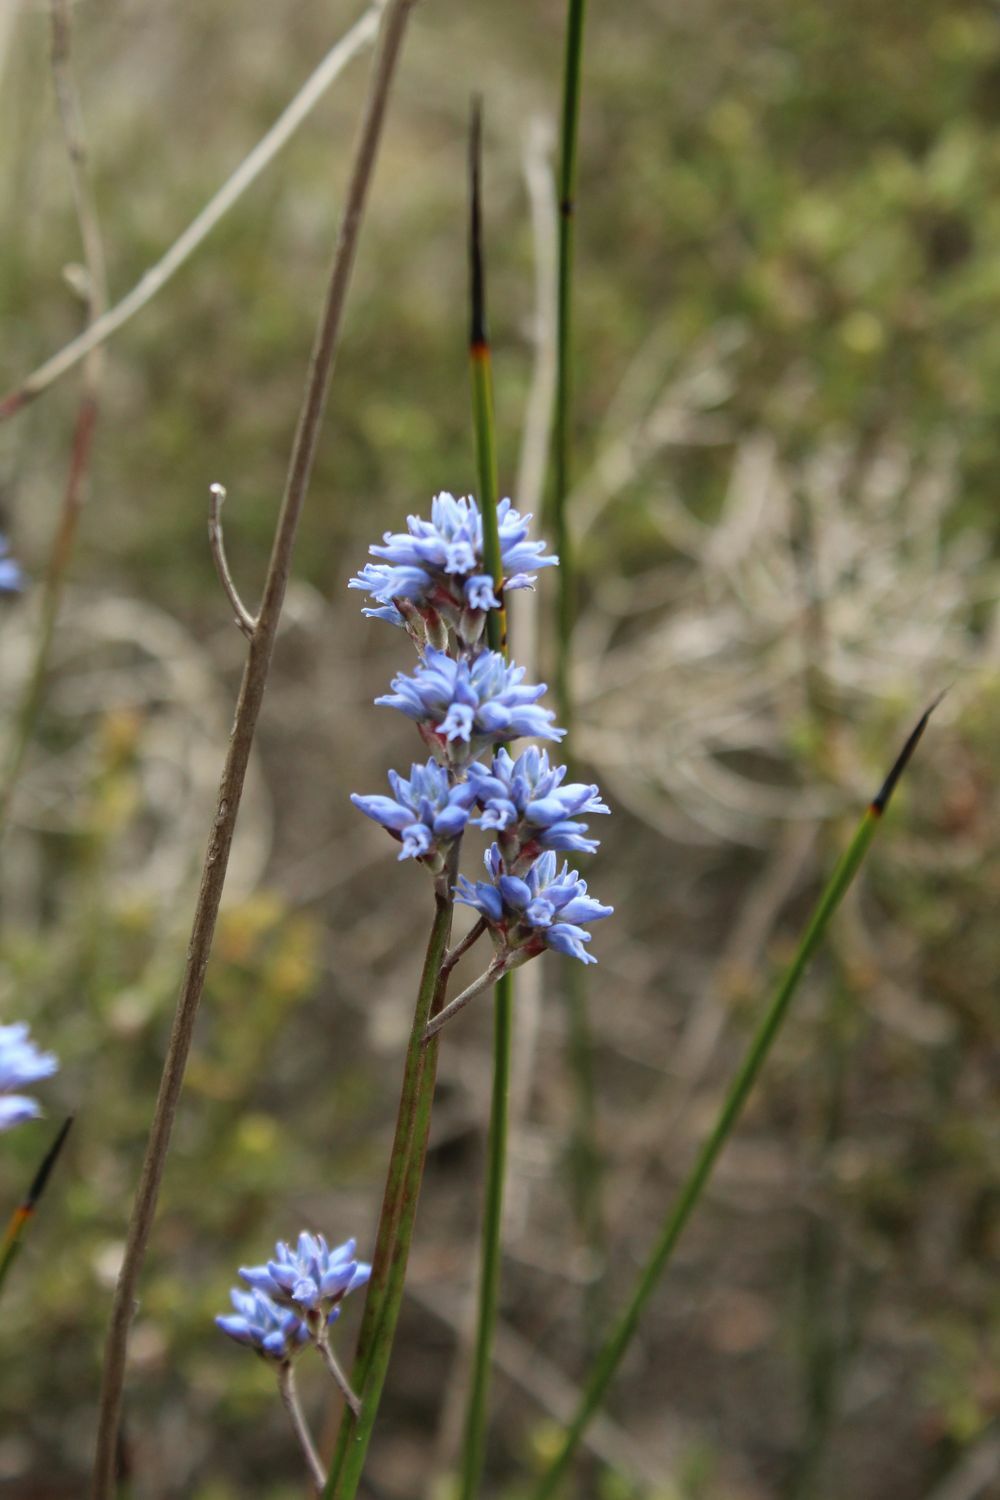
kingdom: Plantae
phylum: Tracheophyta
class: Magnoliopsida
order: Proteales
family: Proteaceae
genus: Conospermum
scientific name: Conospermum caeruleum
